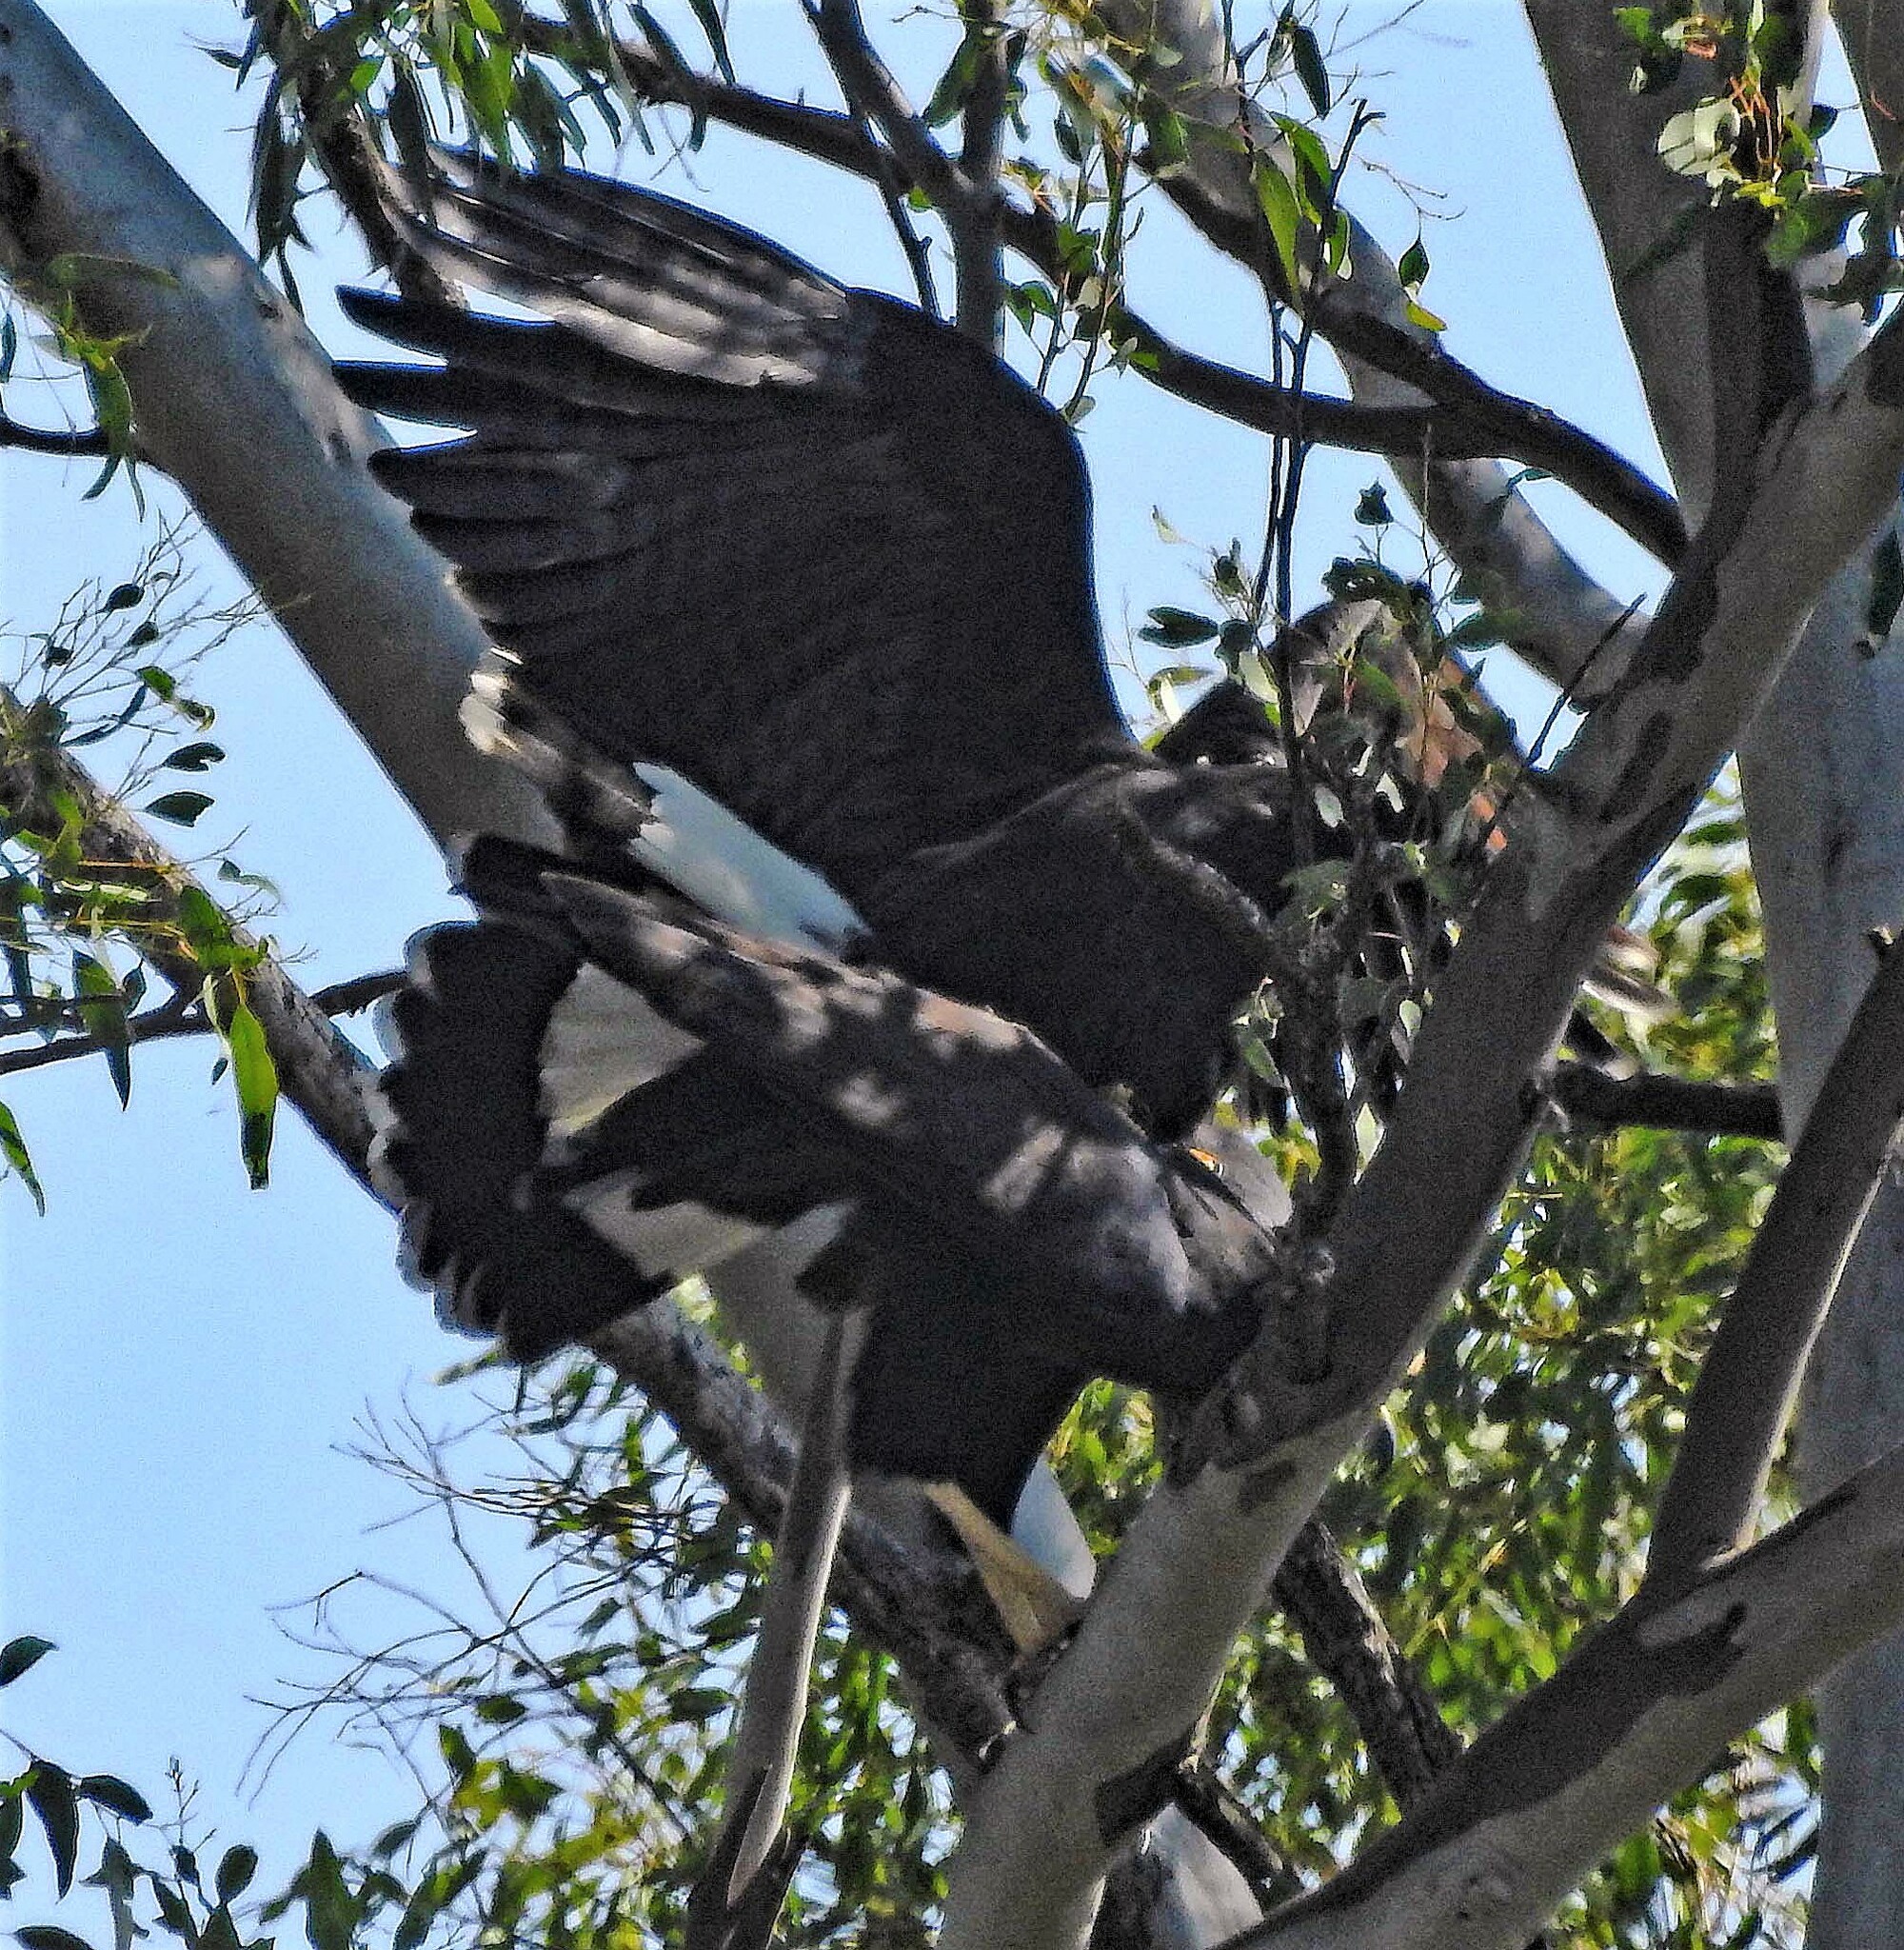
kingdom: Animalia
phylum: Chordata
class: Aves
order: Accipitriformes
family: Accipitridae
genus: Buteogallus
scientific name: Buteogallus urubitinga
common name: Great black hawk
